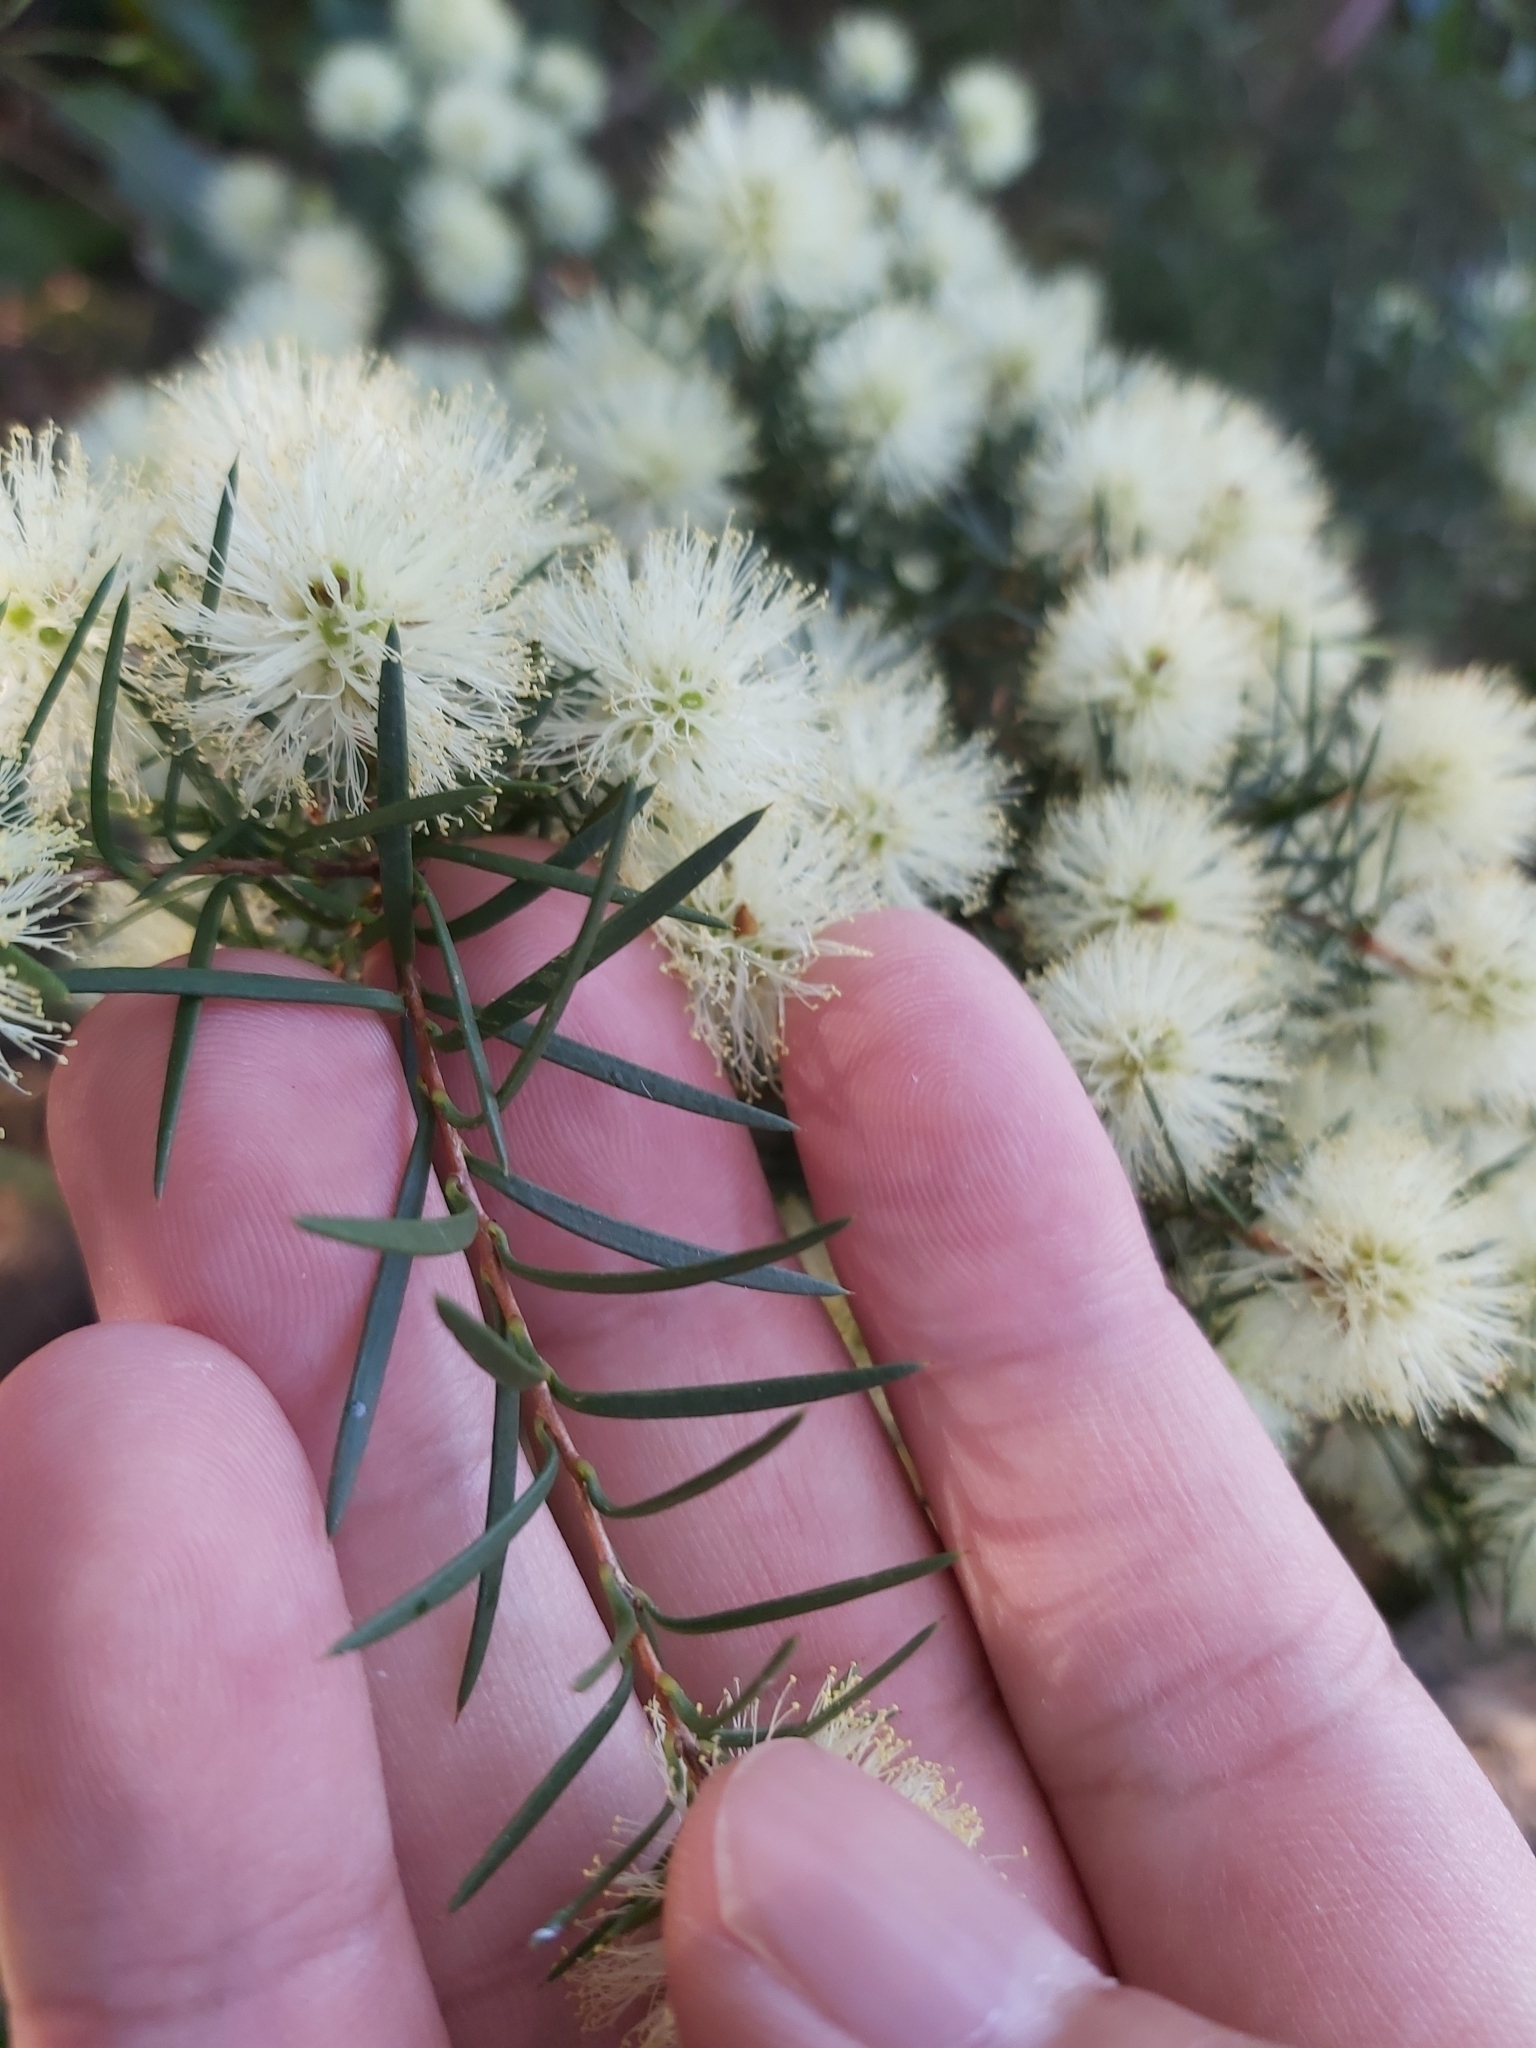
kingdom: Plantae
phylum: Tracheophyta
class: Magnoliopsida
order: Myrtales
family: Myrtaceae
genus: Melaleuca
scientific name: Melaleuca nodosa
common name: Prickly-leaf paperbark
